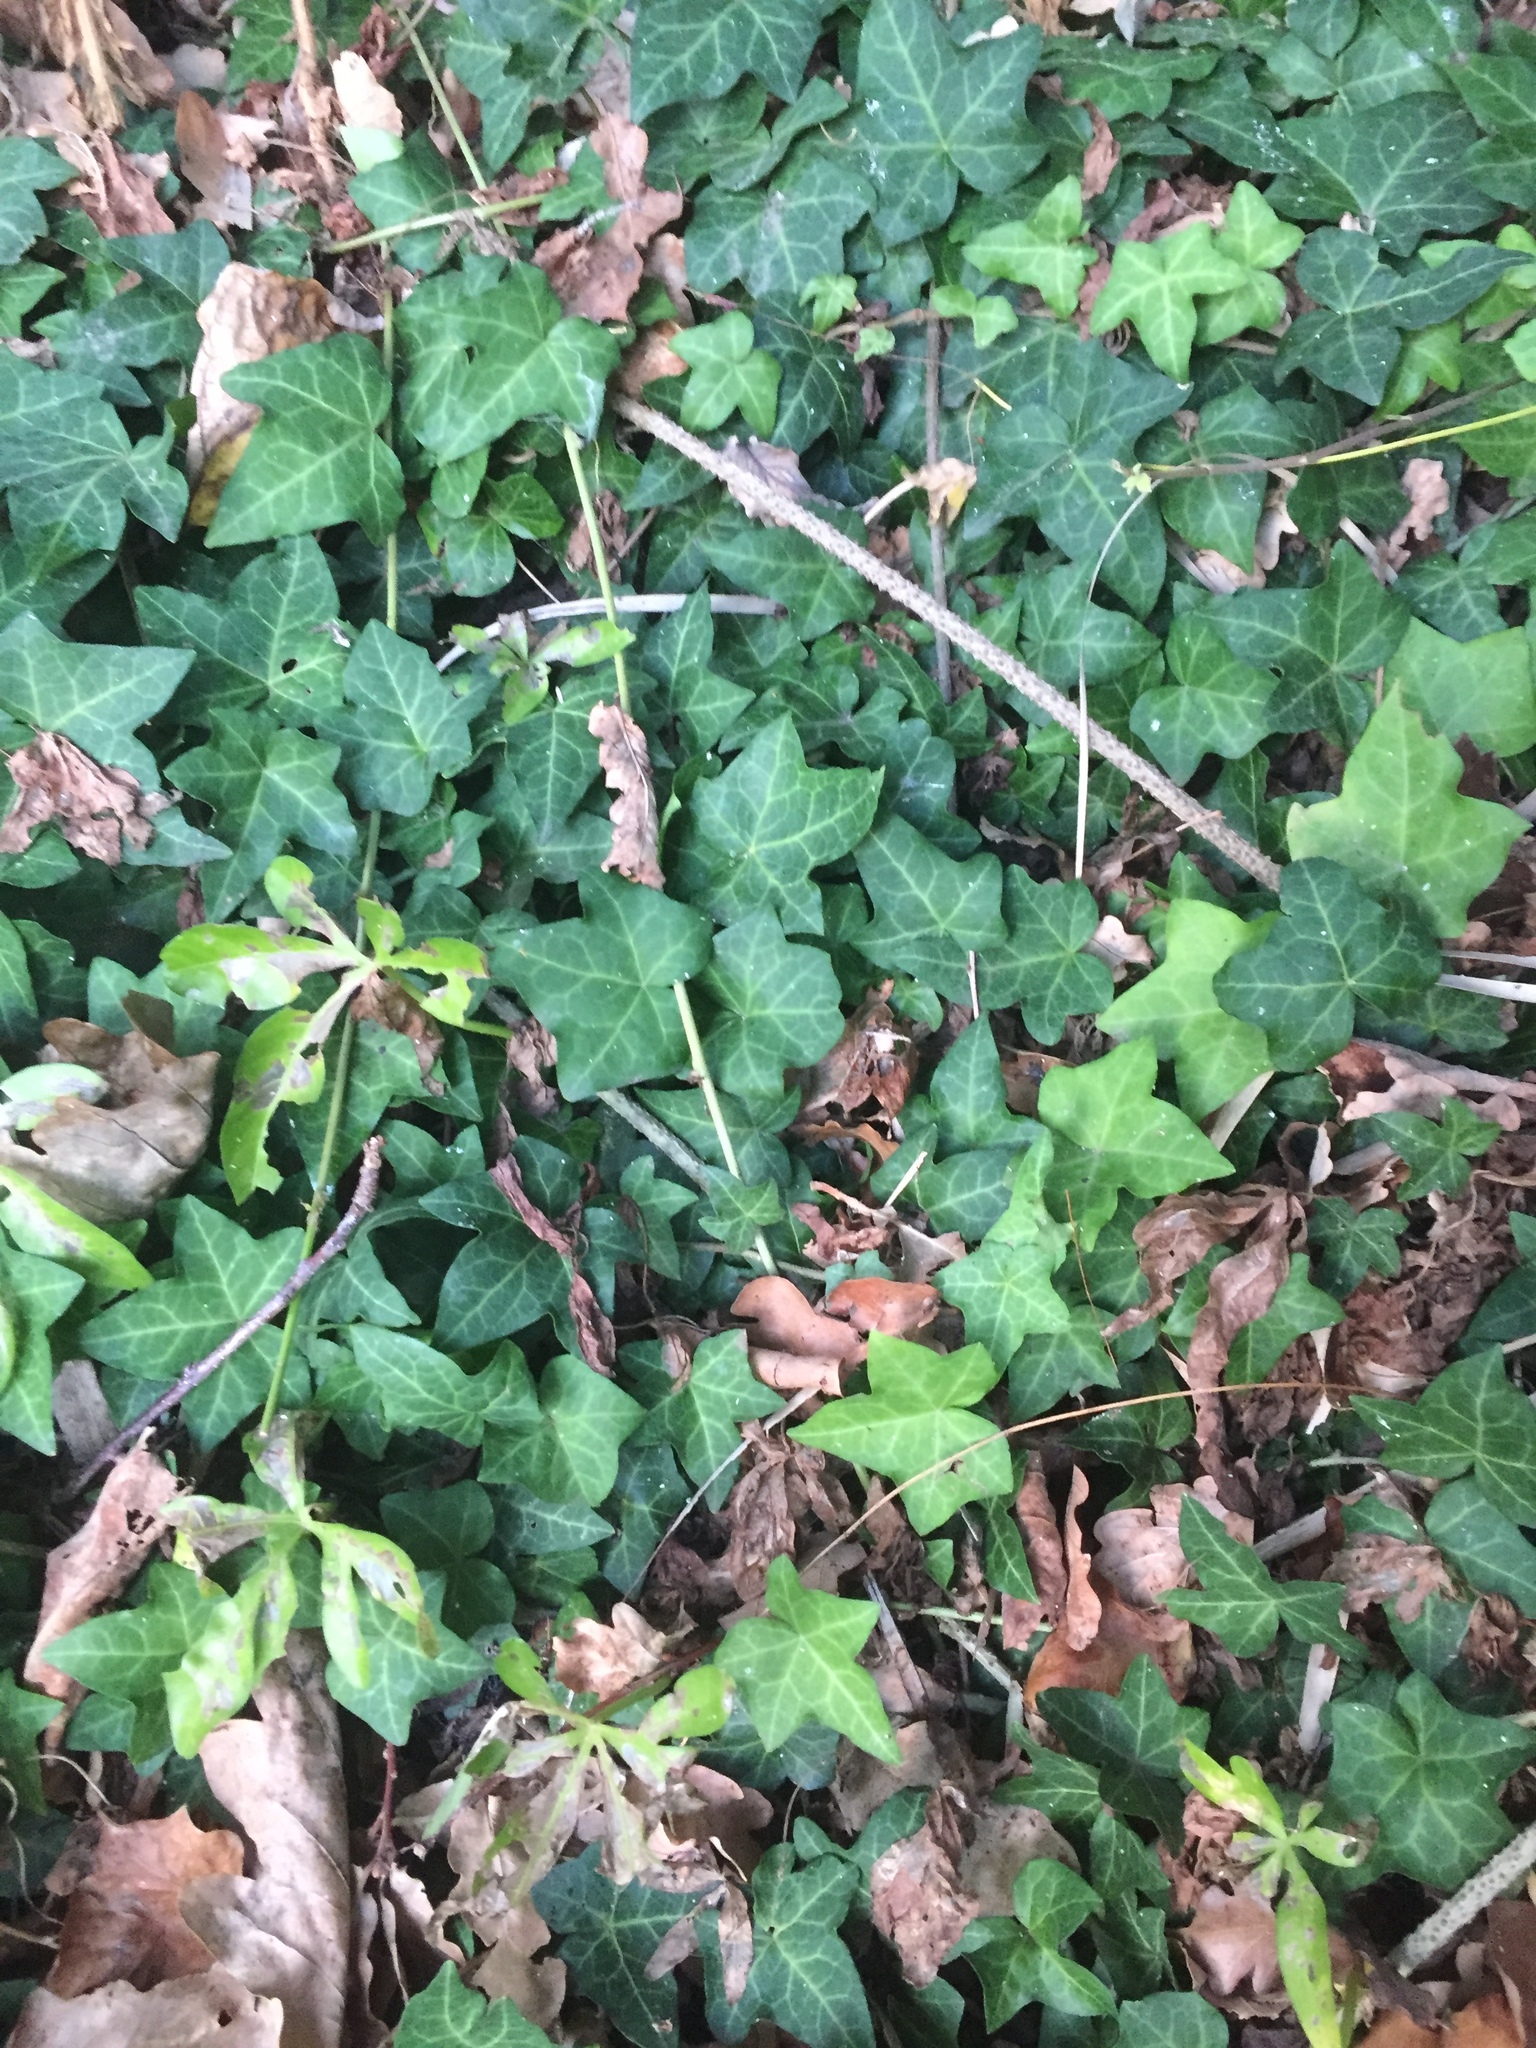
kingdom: Plantae
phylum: Tracheophyta
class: Magnoliopsida
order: Apiales
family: Araliaceae
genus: Hedera
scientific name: Hedera helix
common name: Ivy
